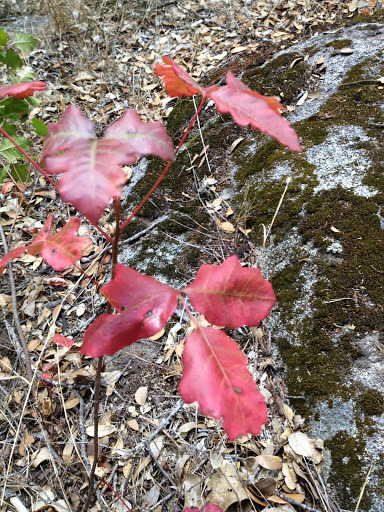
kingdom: Plantae
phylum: Tracheophyta
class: Magnoliopsida
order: Sapindales
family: Anacardiaceae
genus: Toxicodendron
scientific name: Toxicodendron diversilobum
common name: Pacific poison-oak
